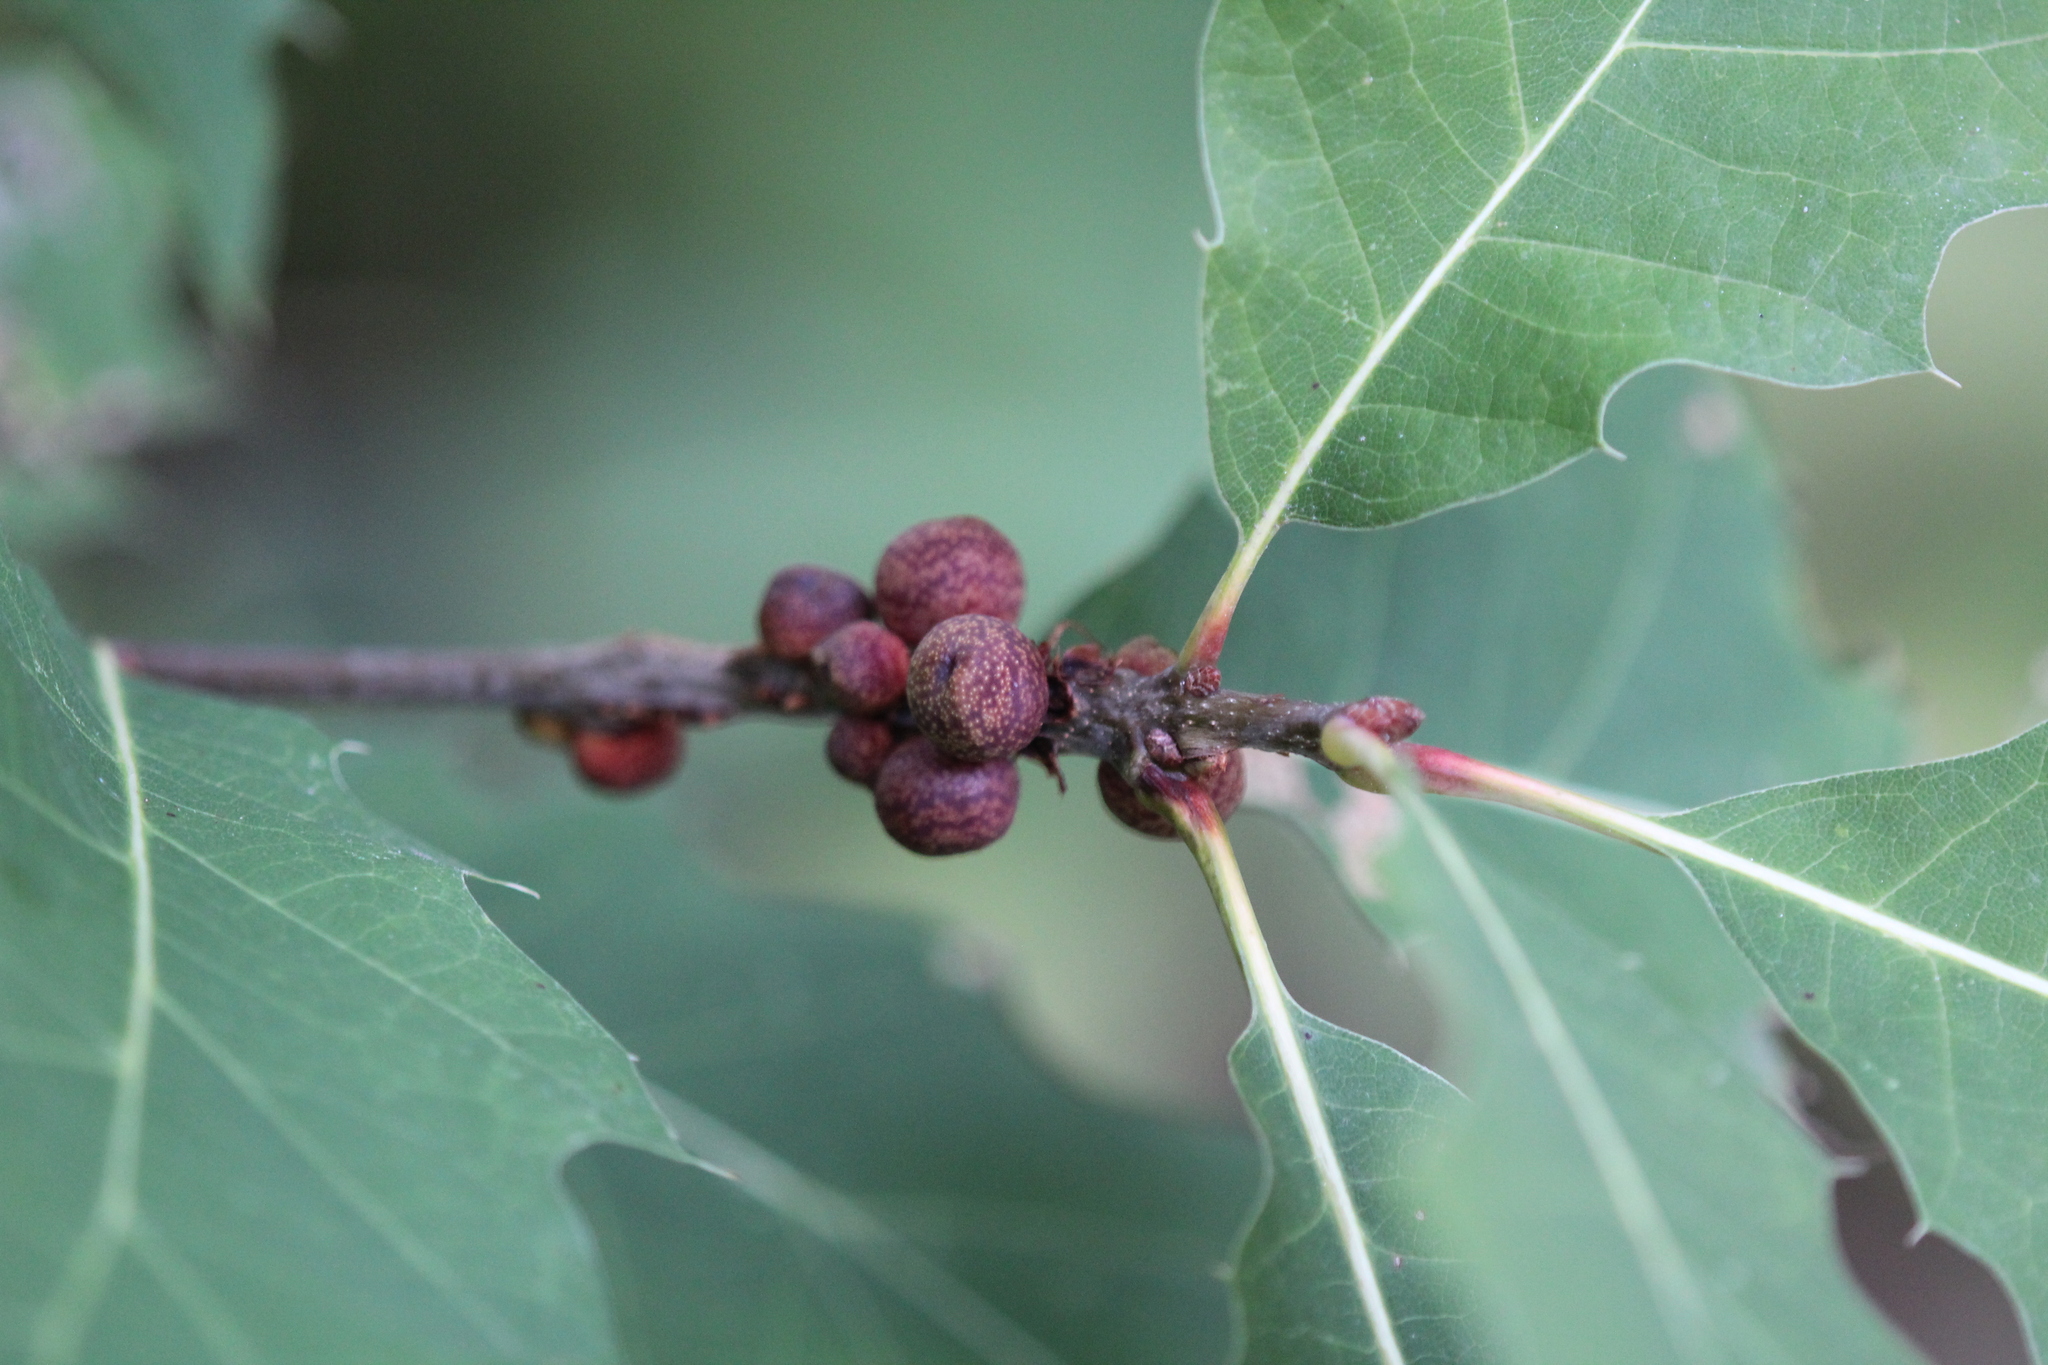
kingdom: Animalia
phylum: Arthropoda
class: Insecta
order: Hymenoptera
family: Cynipidae
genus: Kokkocynips
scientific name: Kokkocynips imbricariae
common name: Banded bullet gall wasp
